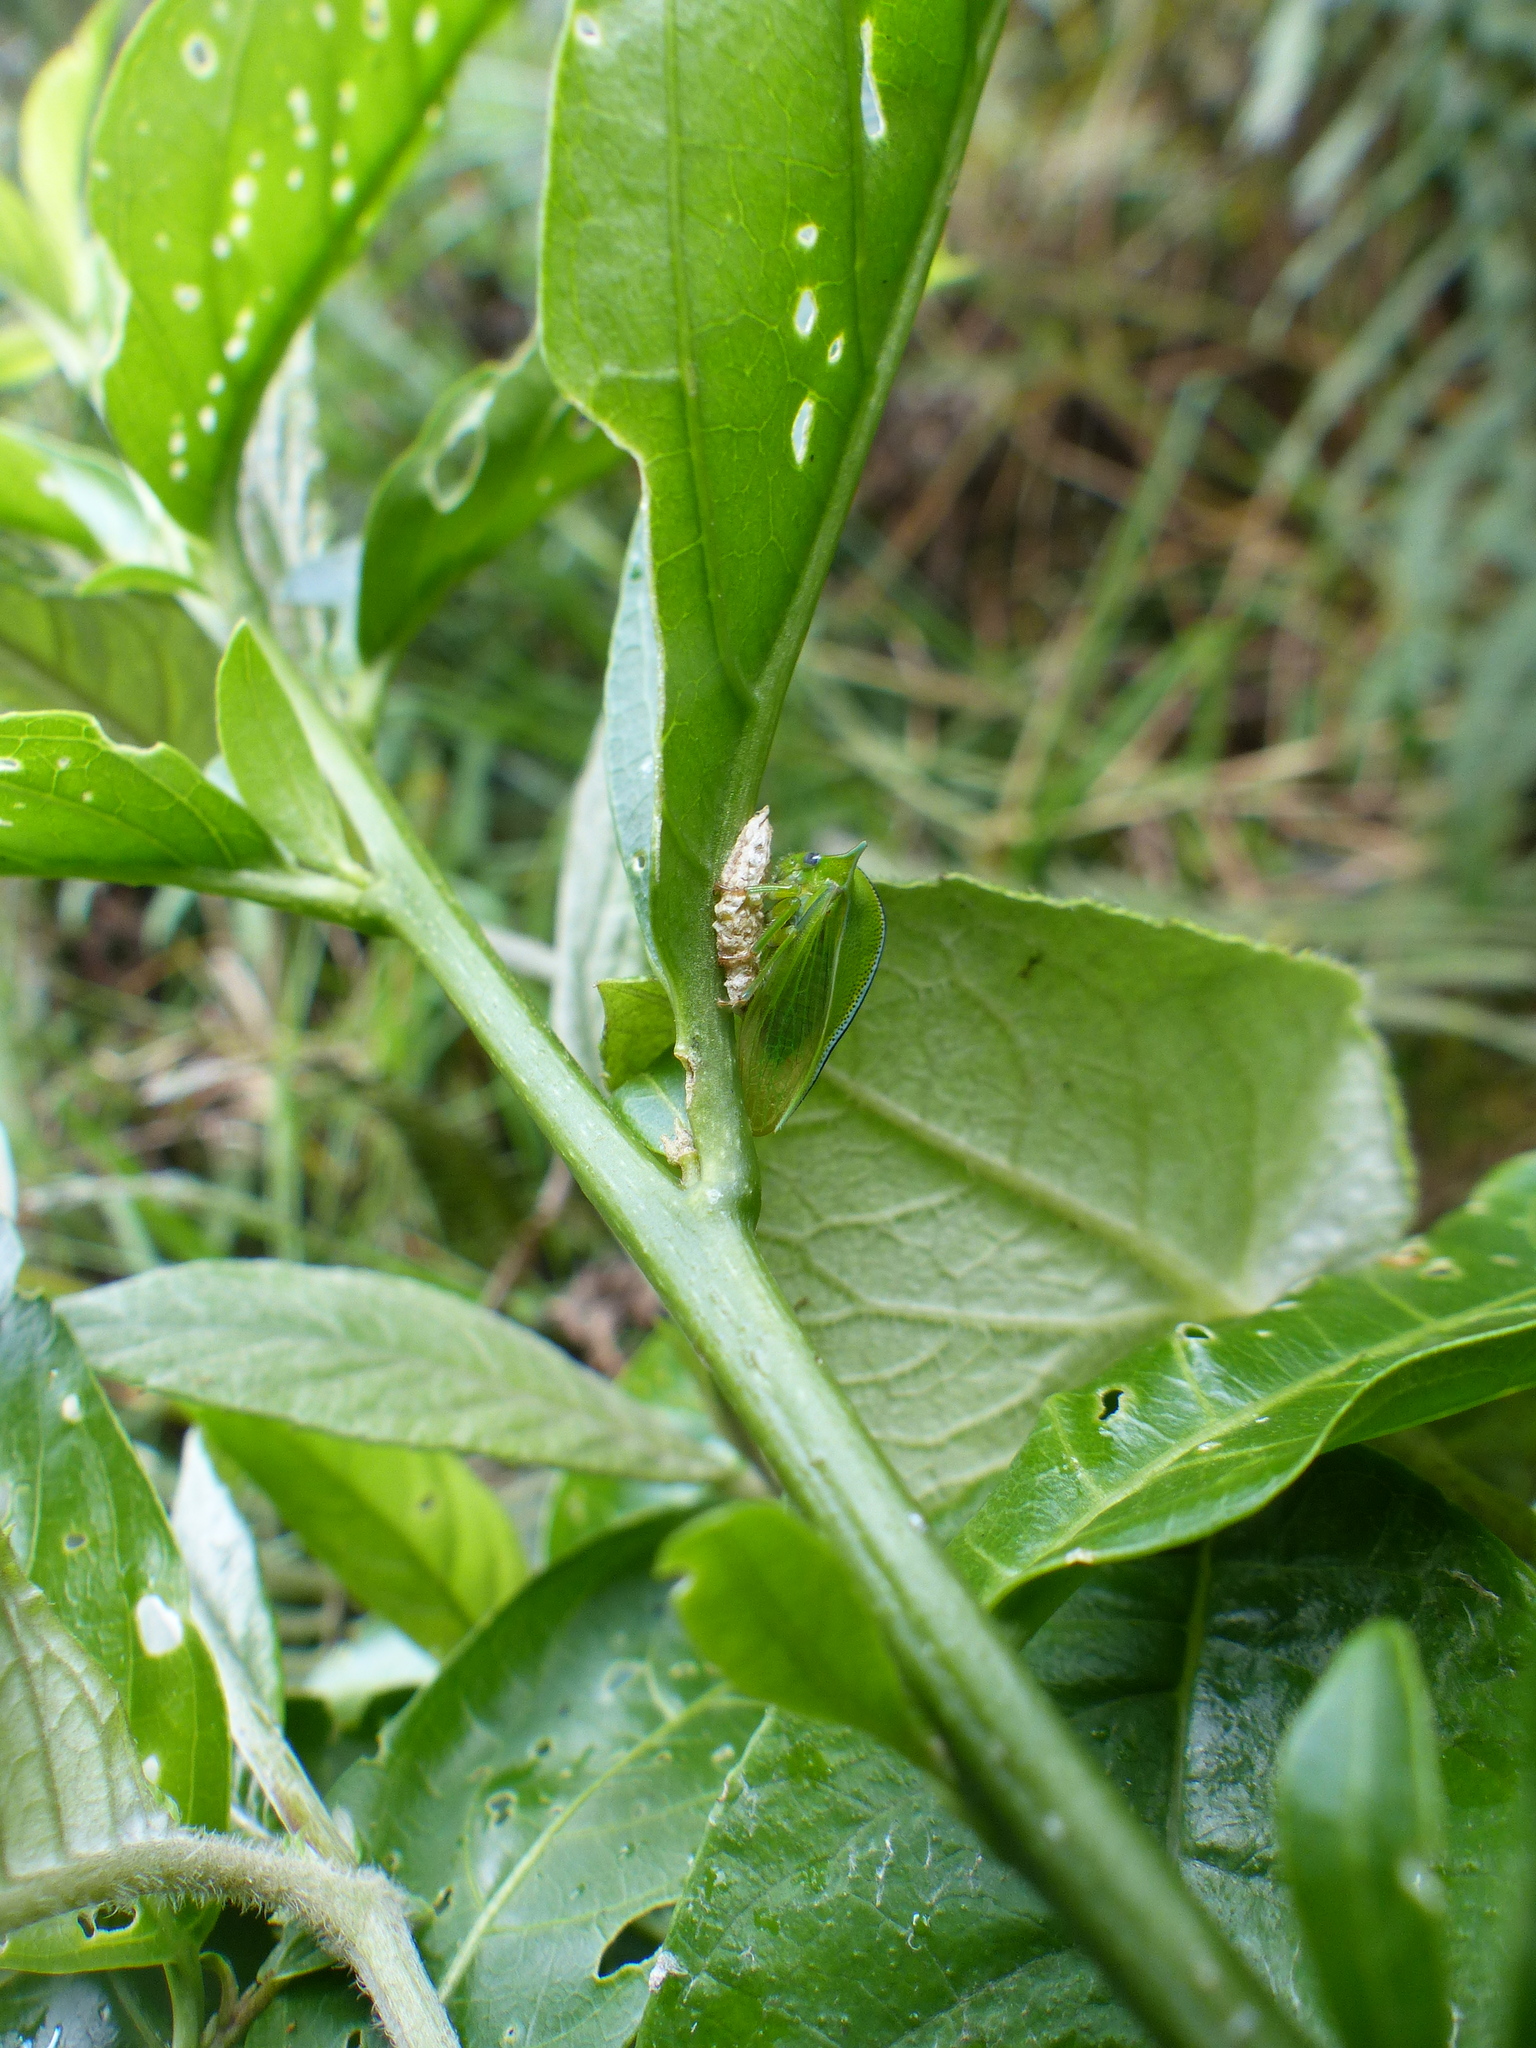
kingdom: Animalia
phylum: Arthropoda
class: Insecta
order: Hemiptera
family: Membracidae
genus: Alchisme
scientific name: Alchisme inermis
